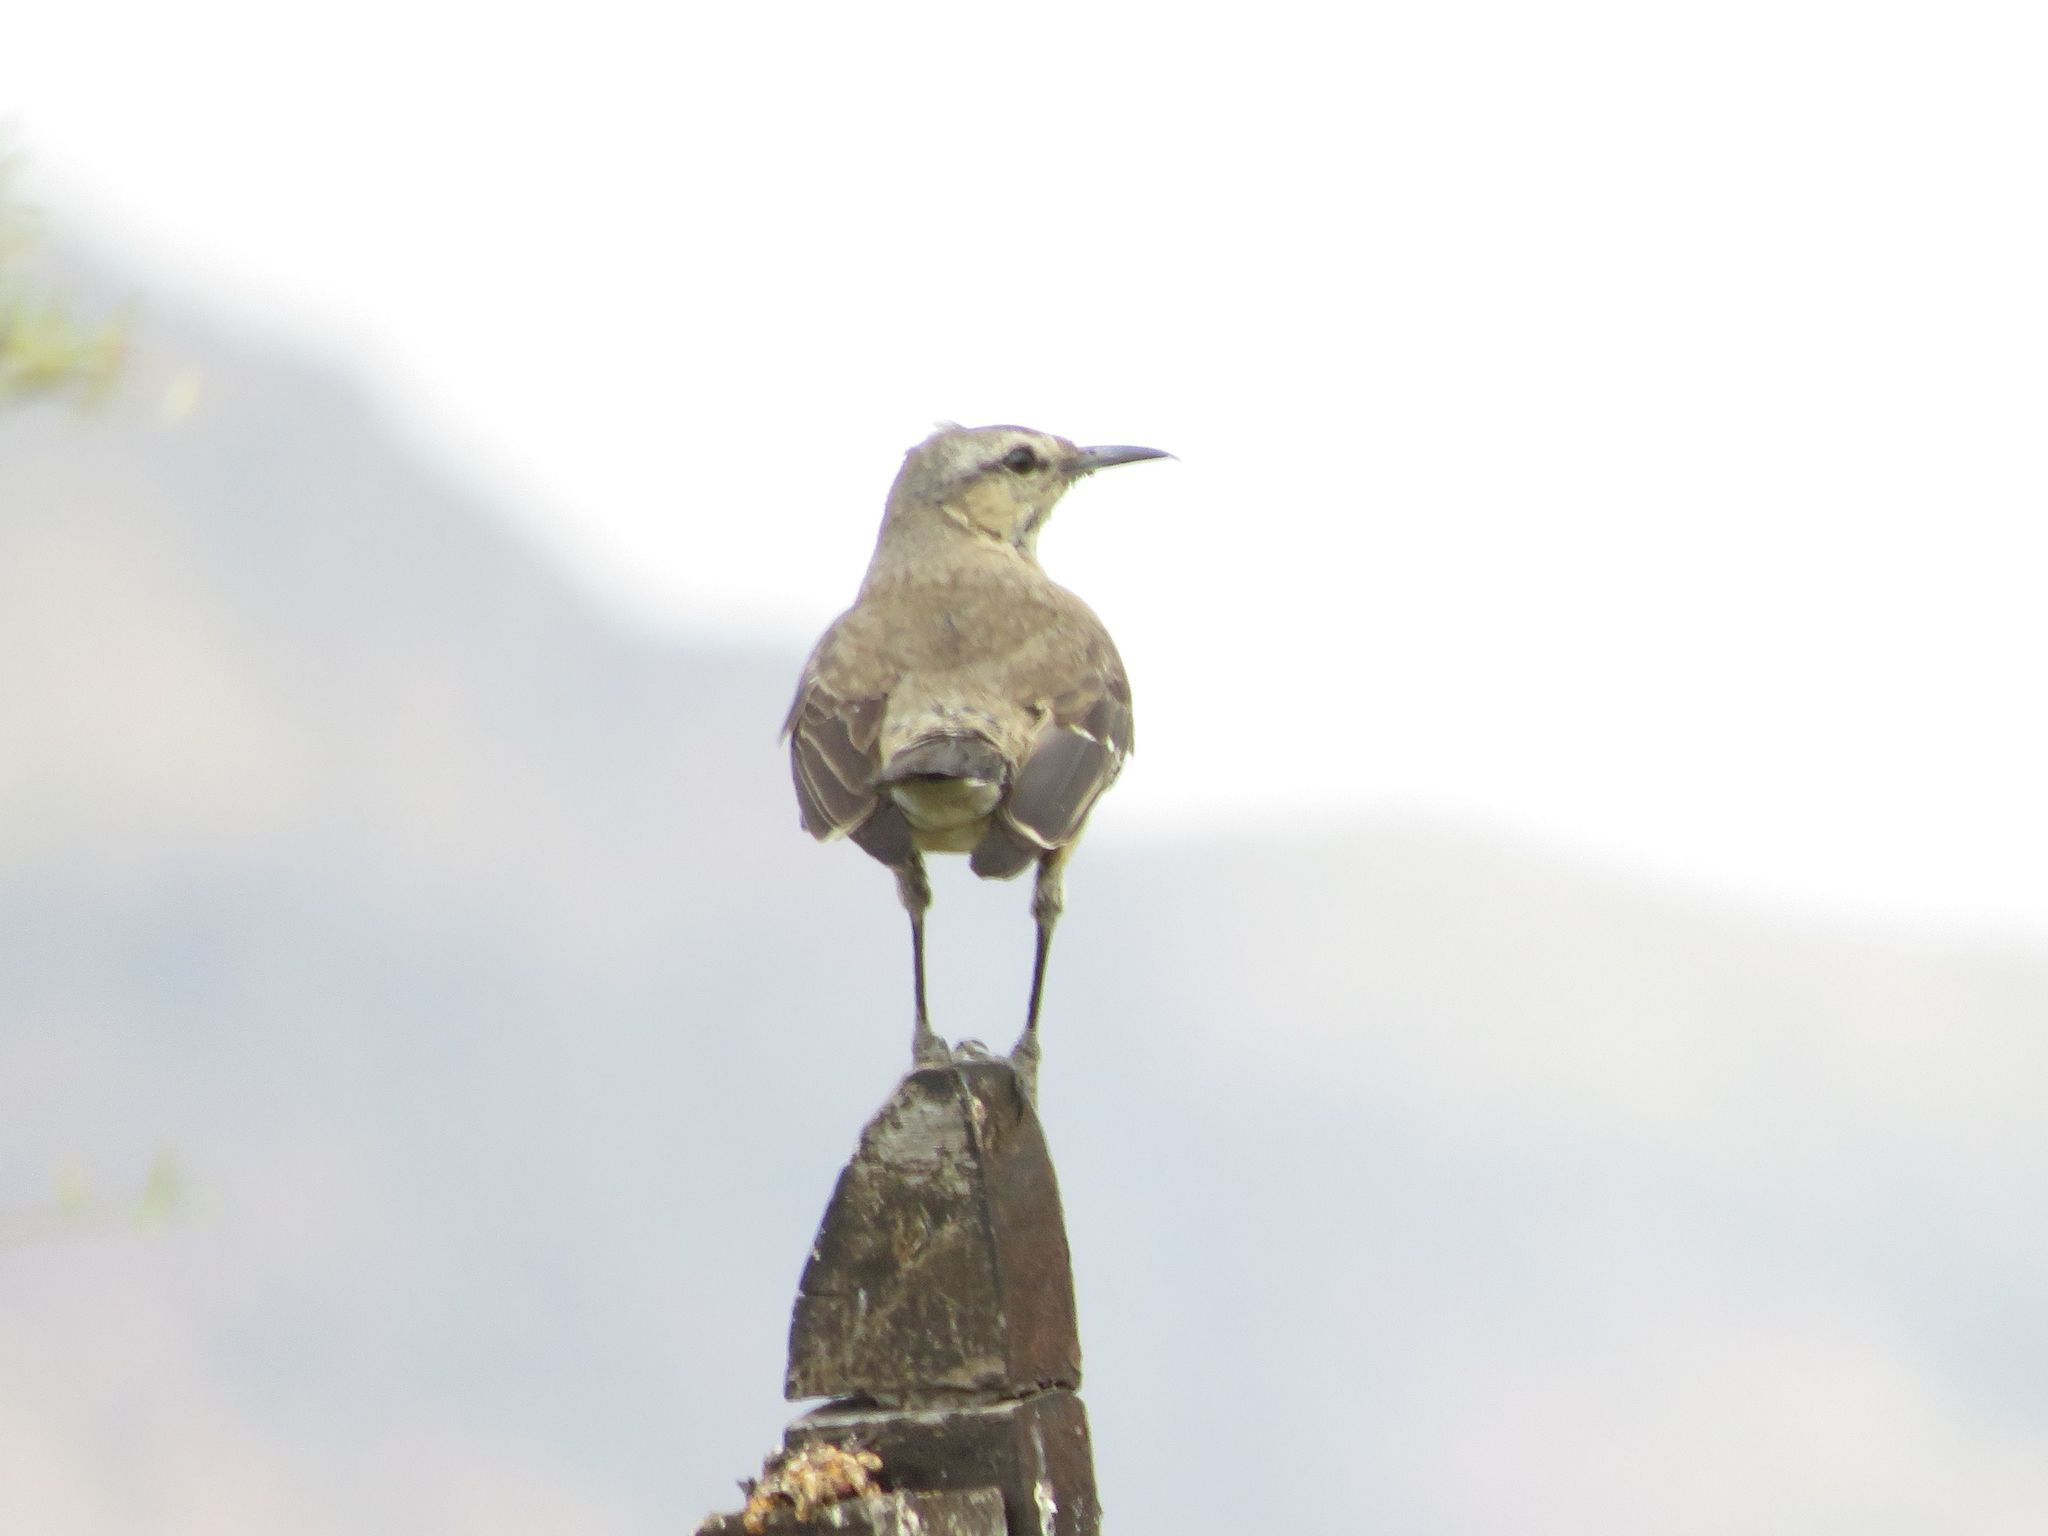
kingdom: Animalia
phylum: Chordata
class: Aves
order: Passeriformes
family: Mimidae
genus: Mimus
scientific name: Mimus patagonicus
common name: Patagonian mockingbird
